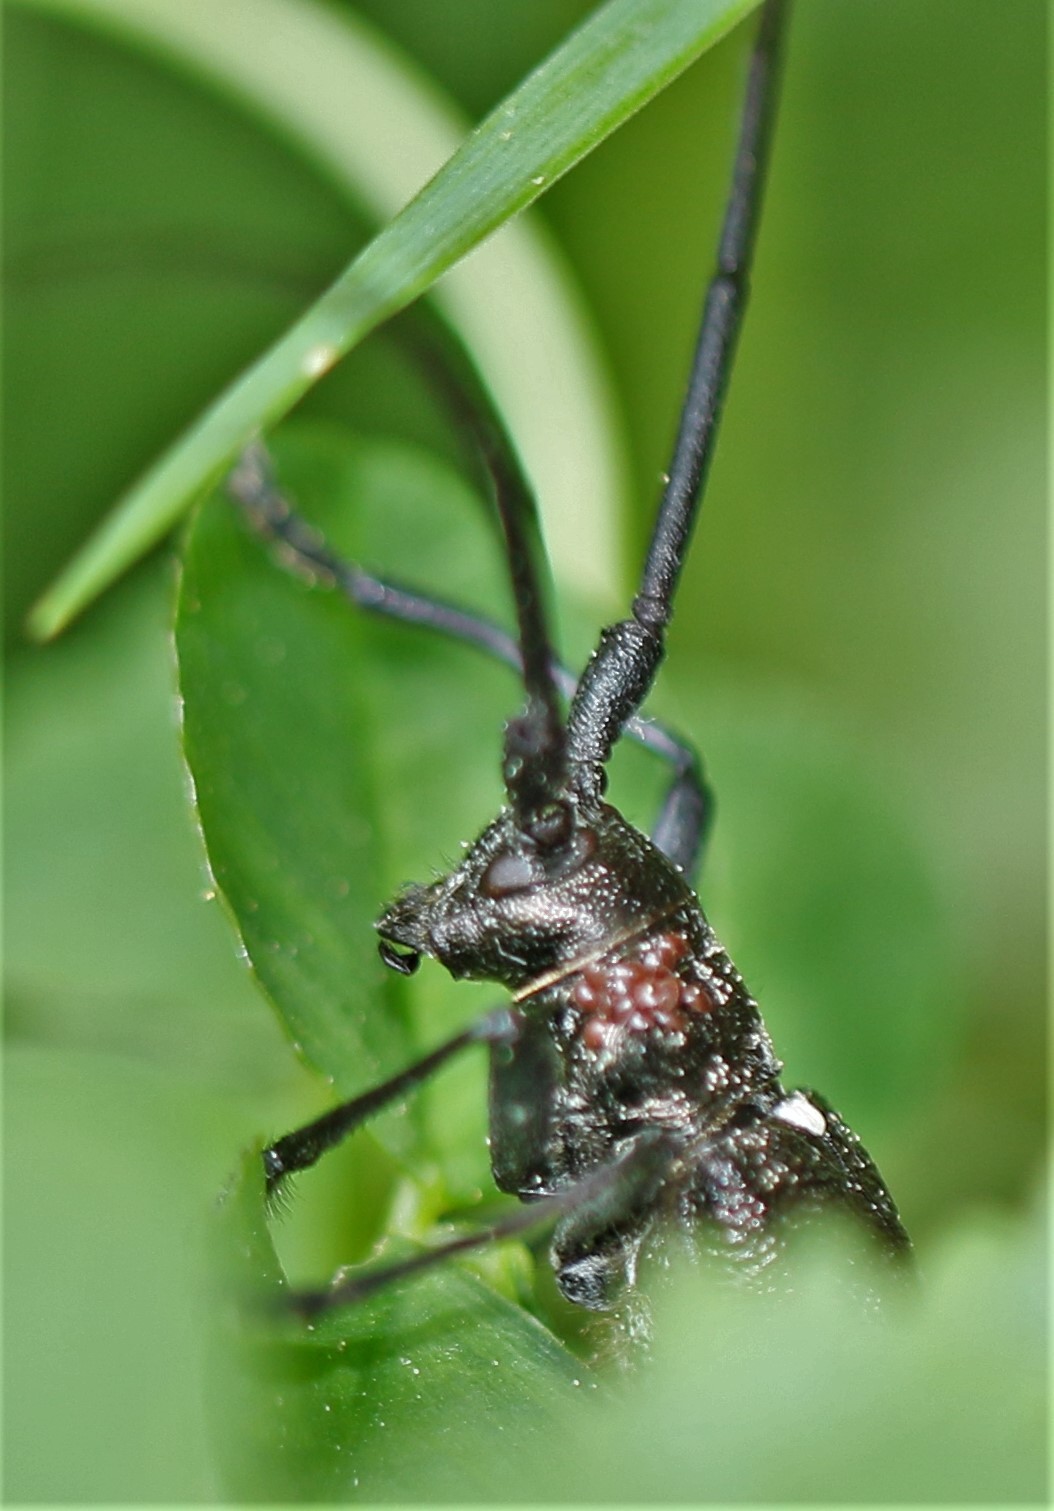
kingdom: Animalia
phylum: Arthropoda
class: Insecta
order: Coleoptera
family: Cerambycidae
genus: Monochamus
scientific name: Monochamus scutellatus
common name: White-spotted sawyer beetle
